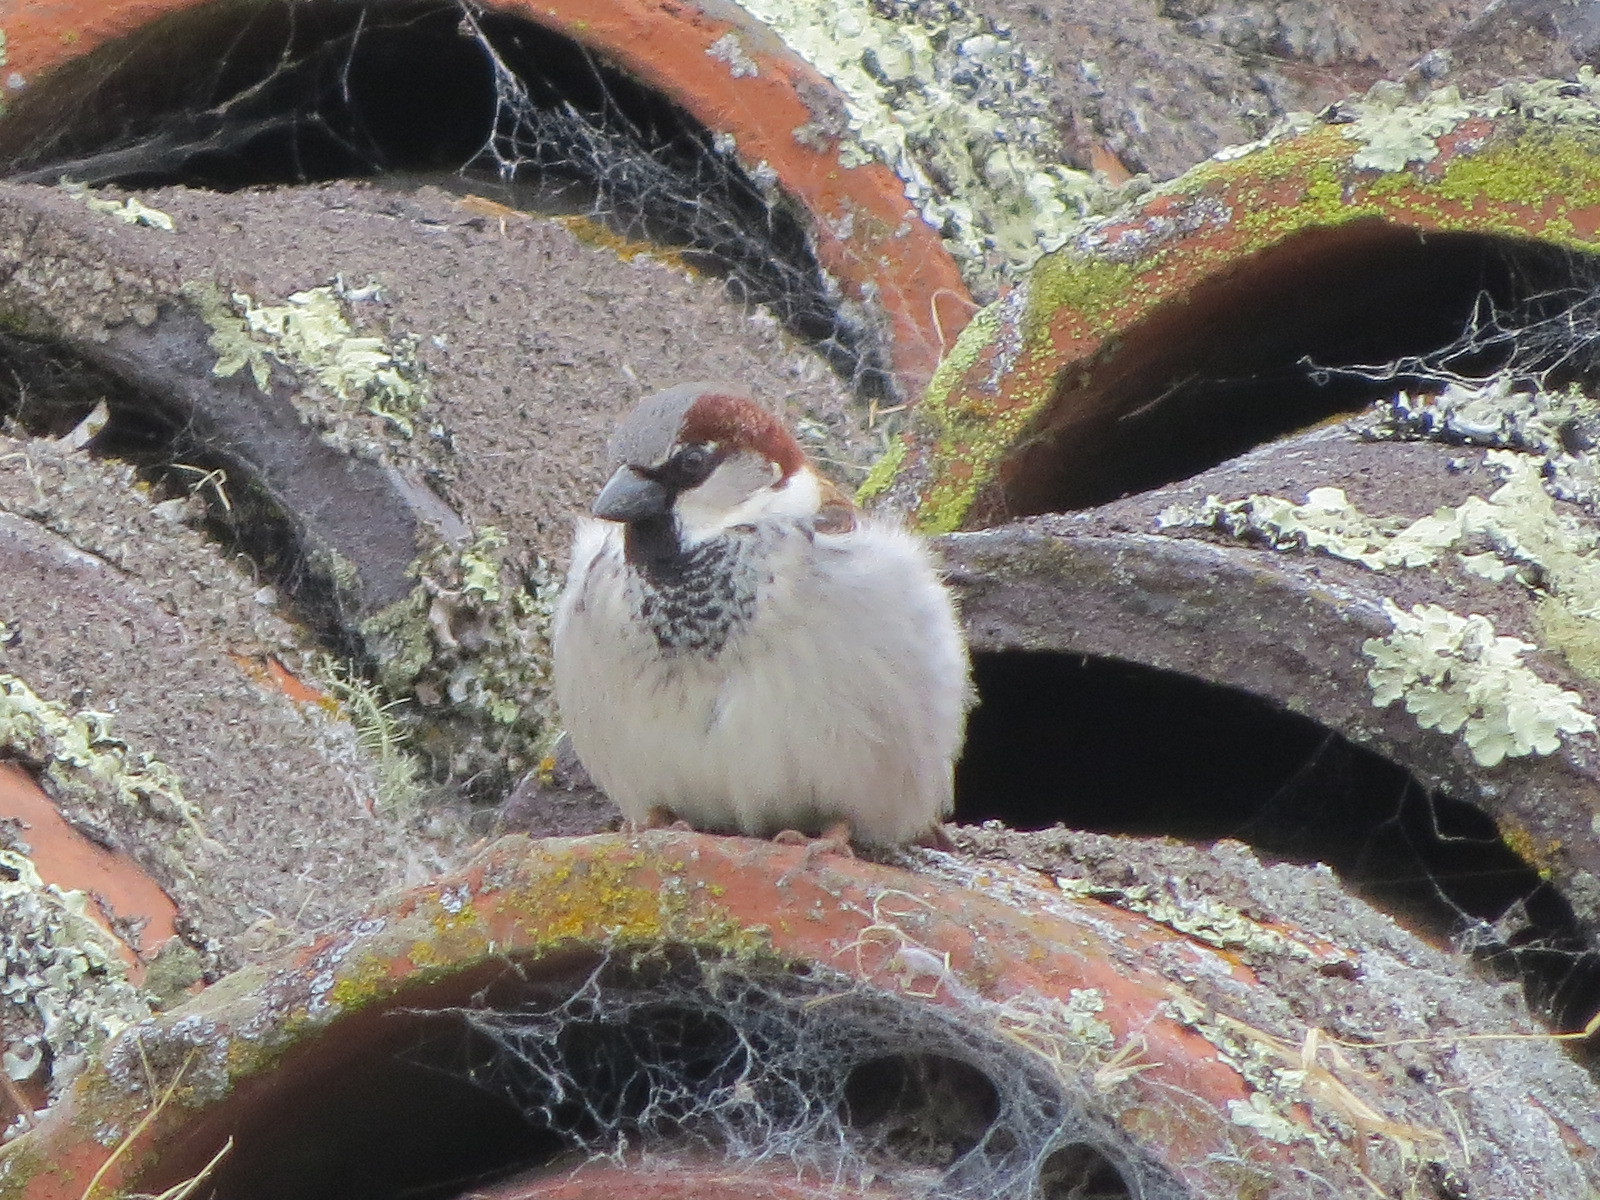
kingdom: Animalia
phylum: Chordata
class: Aves
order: Passeriformes
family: Passeridae
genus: Passer
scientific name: Passer domesticus
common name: House sparrow
